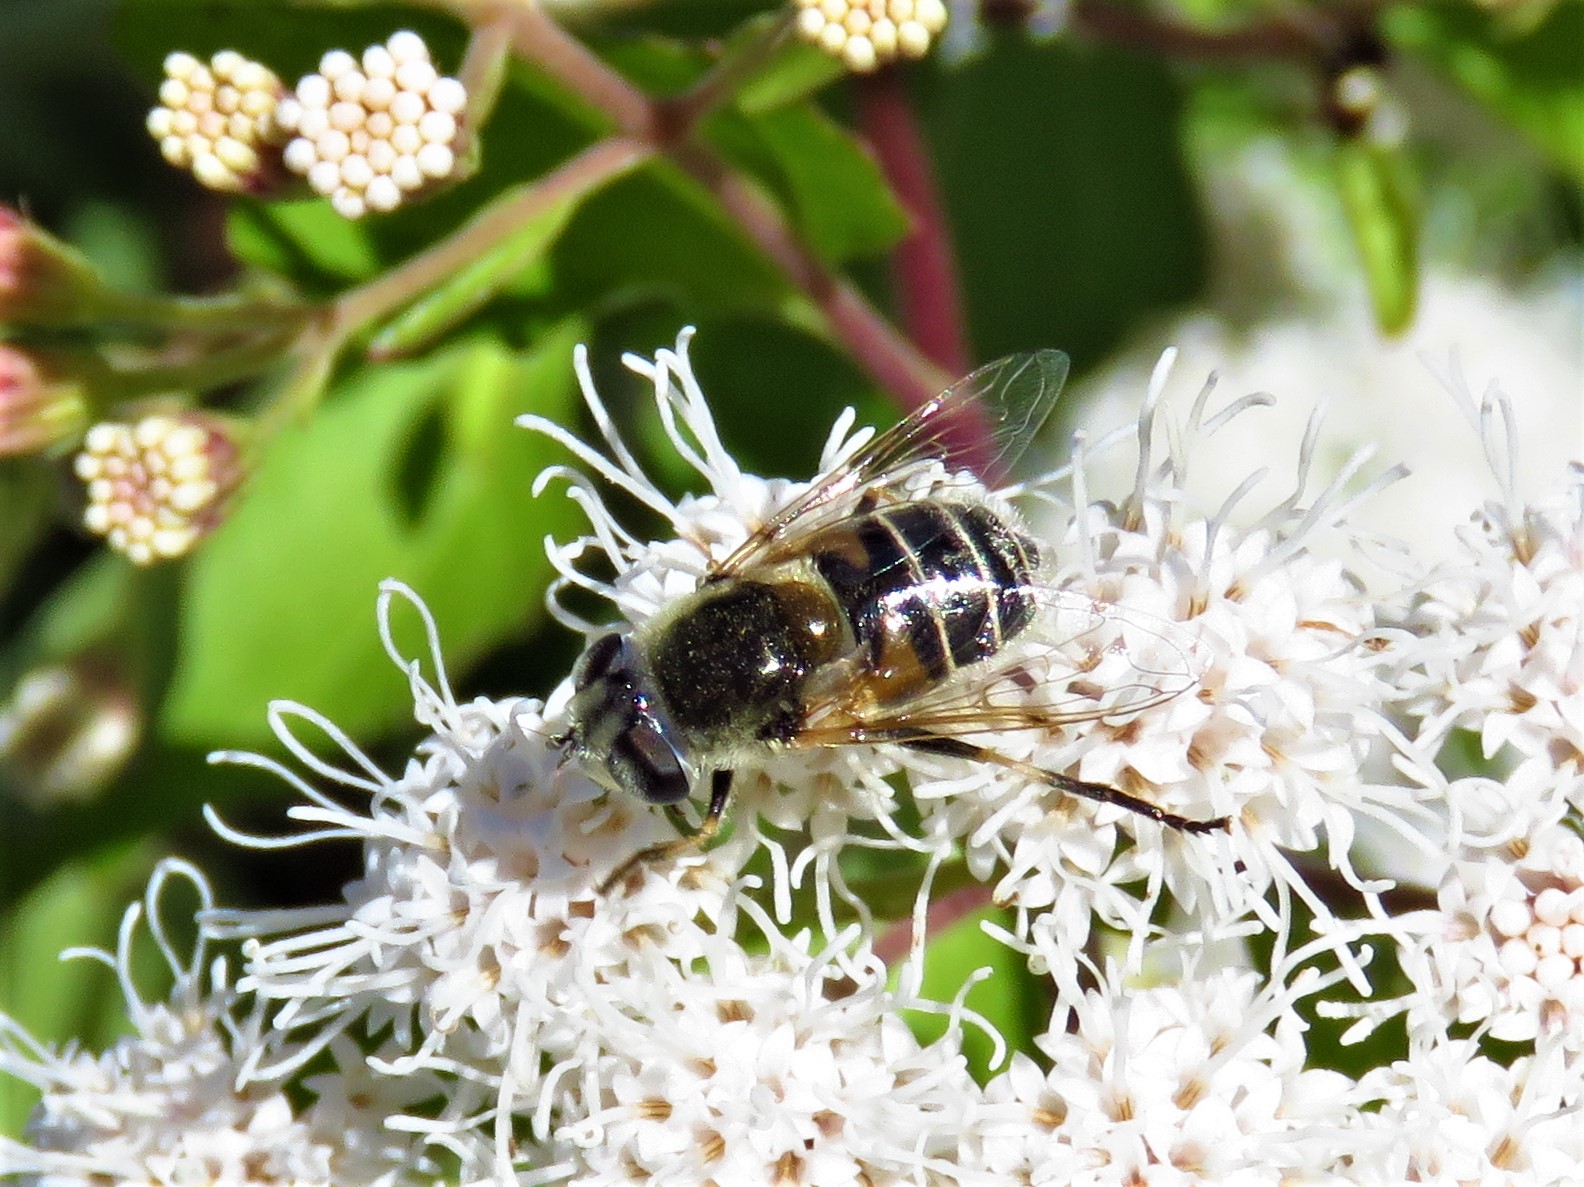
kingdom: Animalia
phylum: Arthropoda
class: Insecta
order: Diptera
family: Syrphidae
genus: Eristalis
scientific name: Eristalis stipator
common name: Yellow-shouldered drone fly
